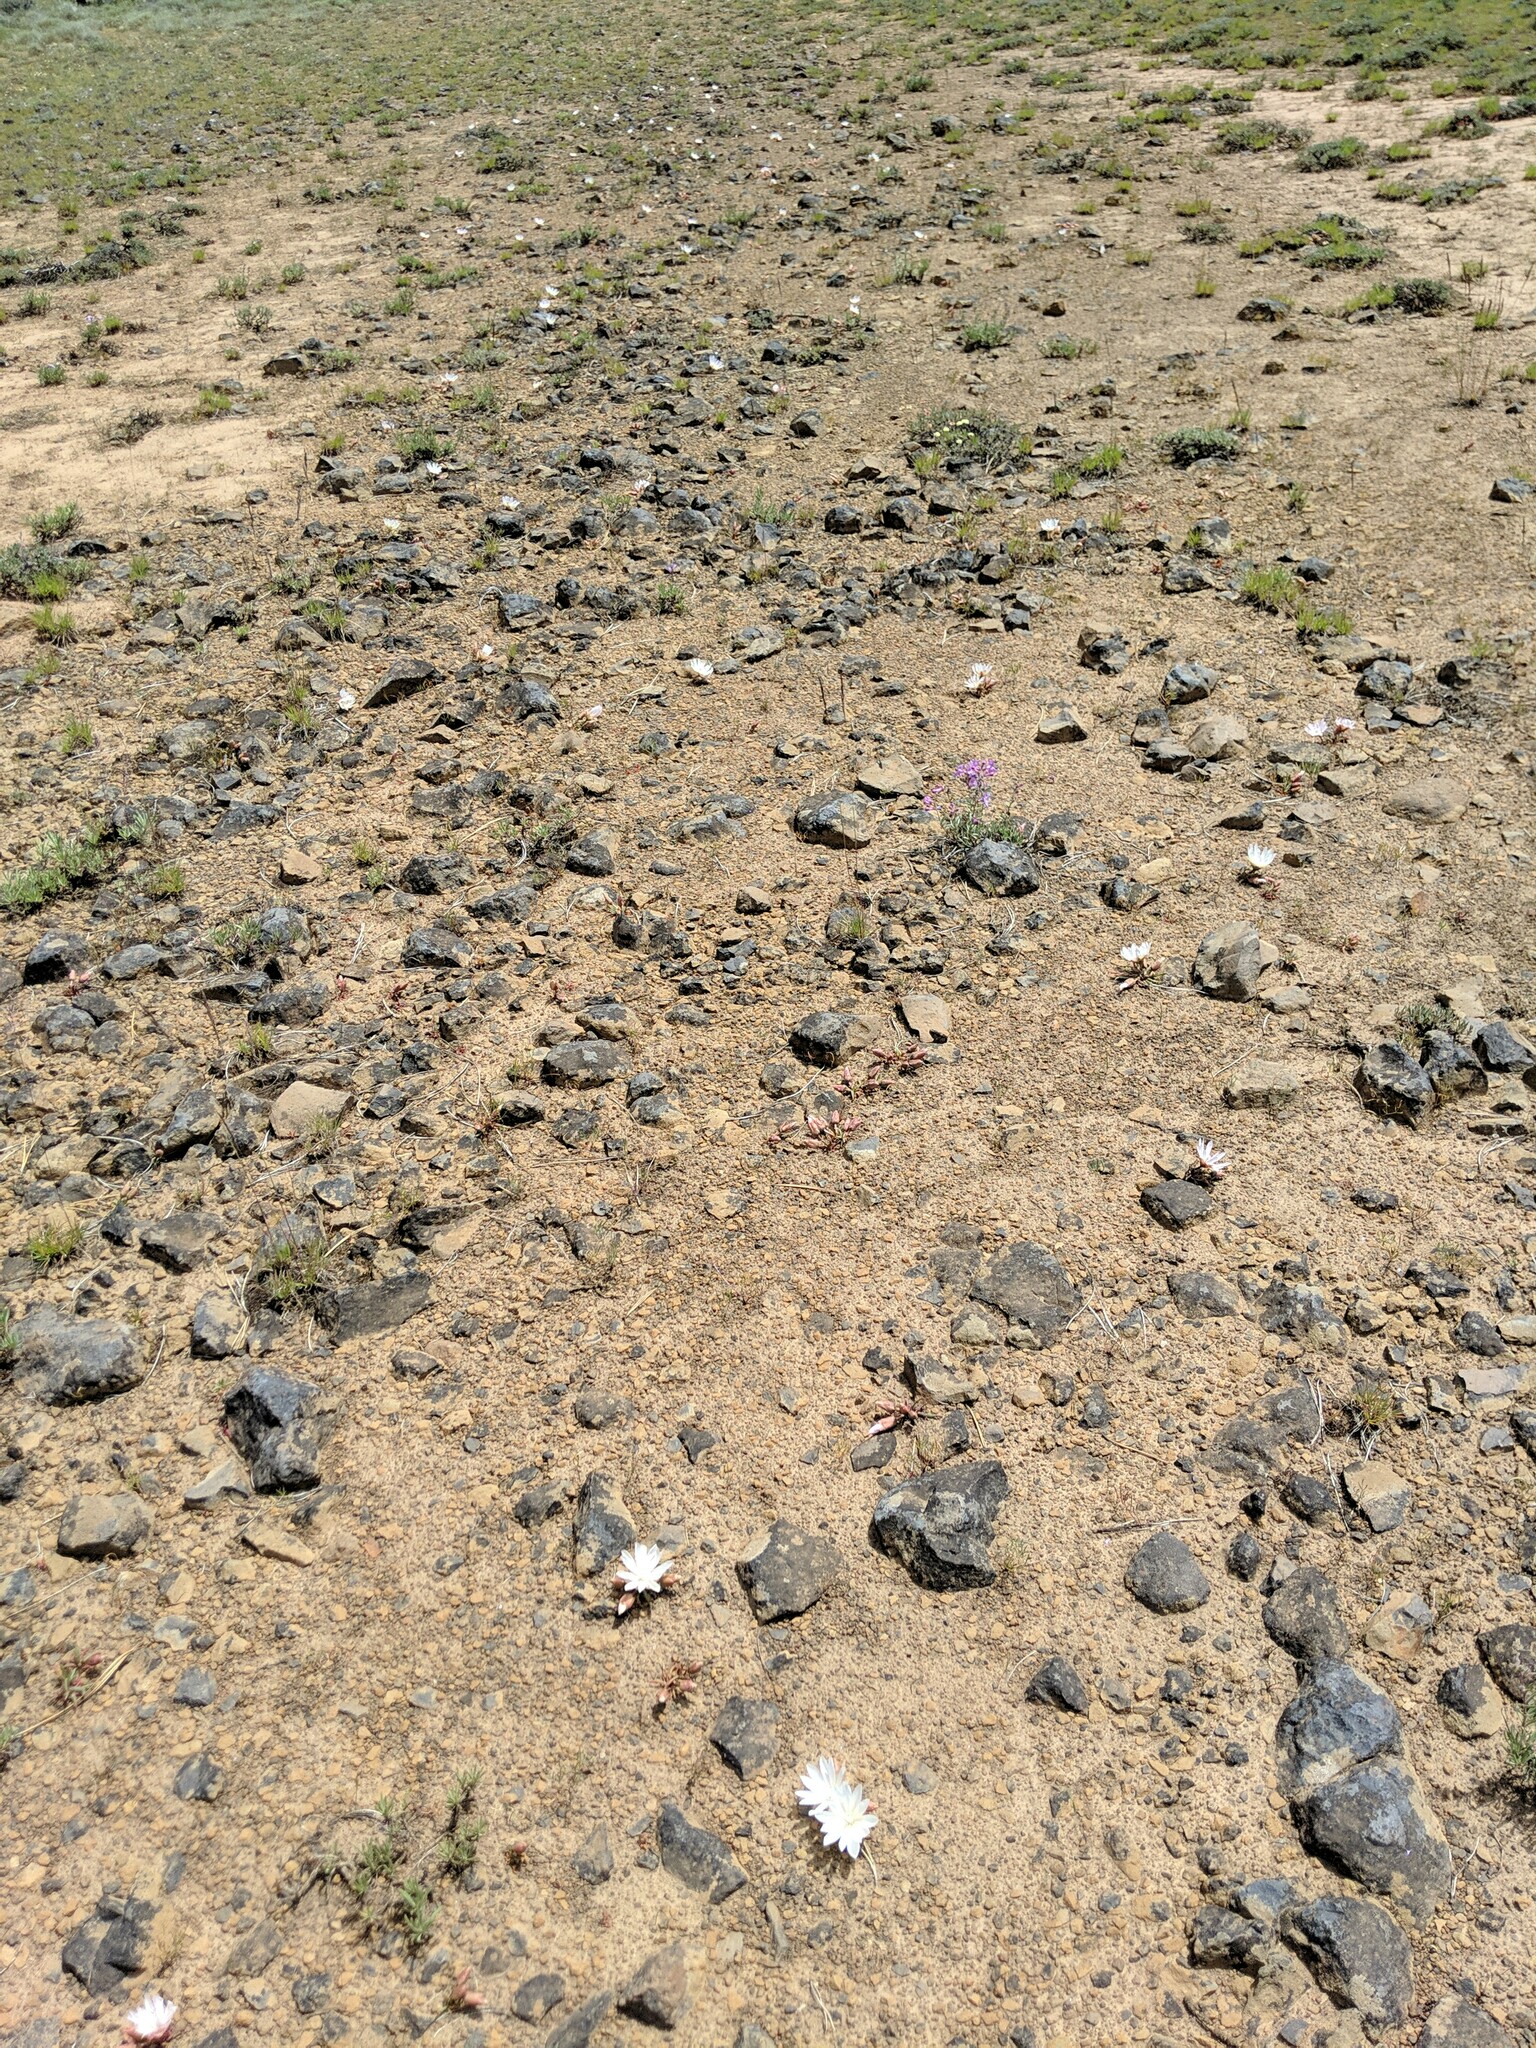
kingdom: Plantae
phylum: Tracheophyta
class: Magnoliopsida
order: Caryophyllales
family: Montiaceae
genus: Lewisia
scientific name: Lewisia rediviva
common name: Bitter-root
